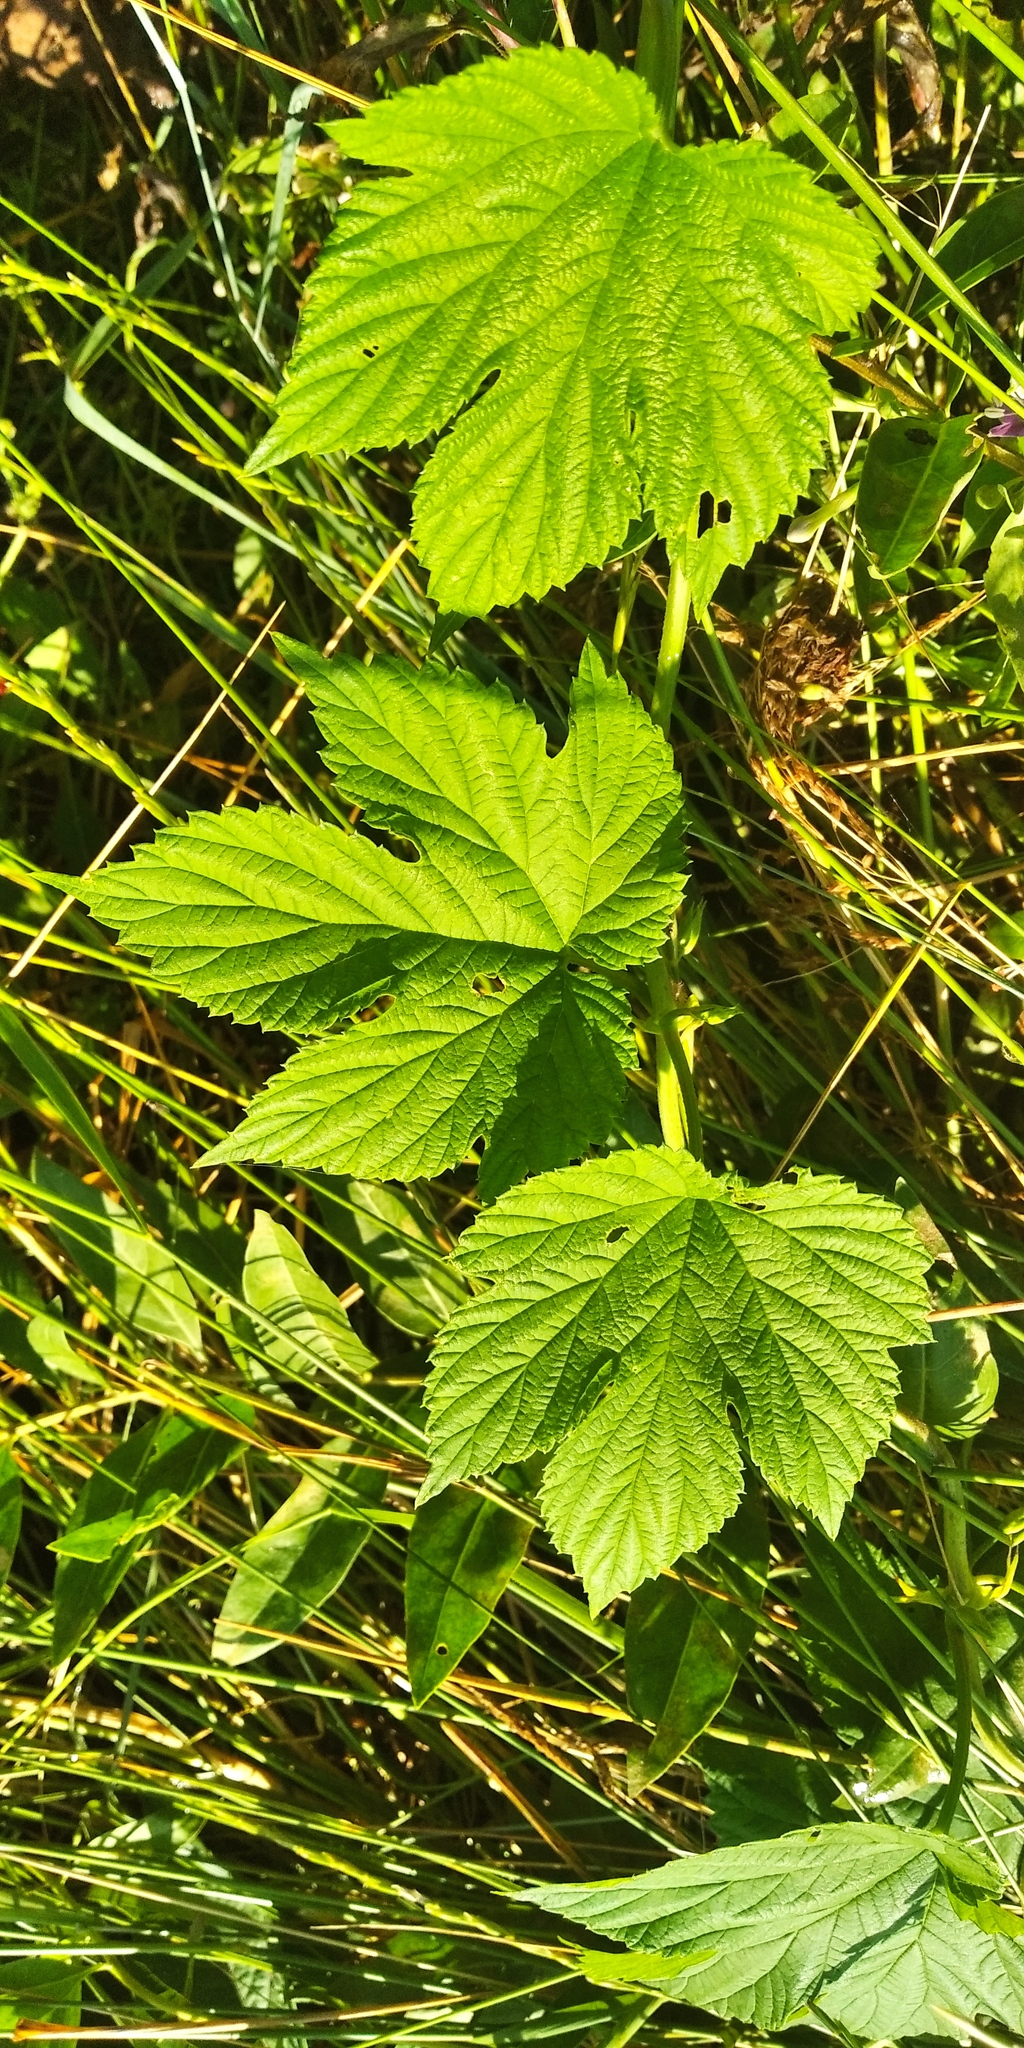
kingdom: Plantae
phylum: Tracheophyta
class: Magnoliopsida
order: Rosales
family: Cannabaceae
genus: Humulus
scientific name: Humulus lupulus
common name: Hop
